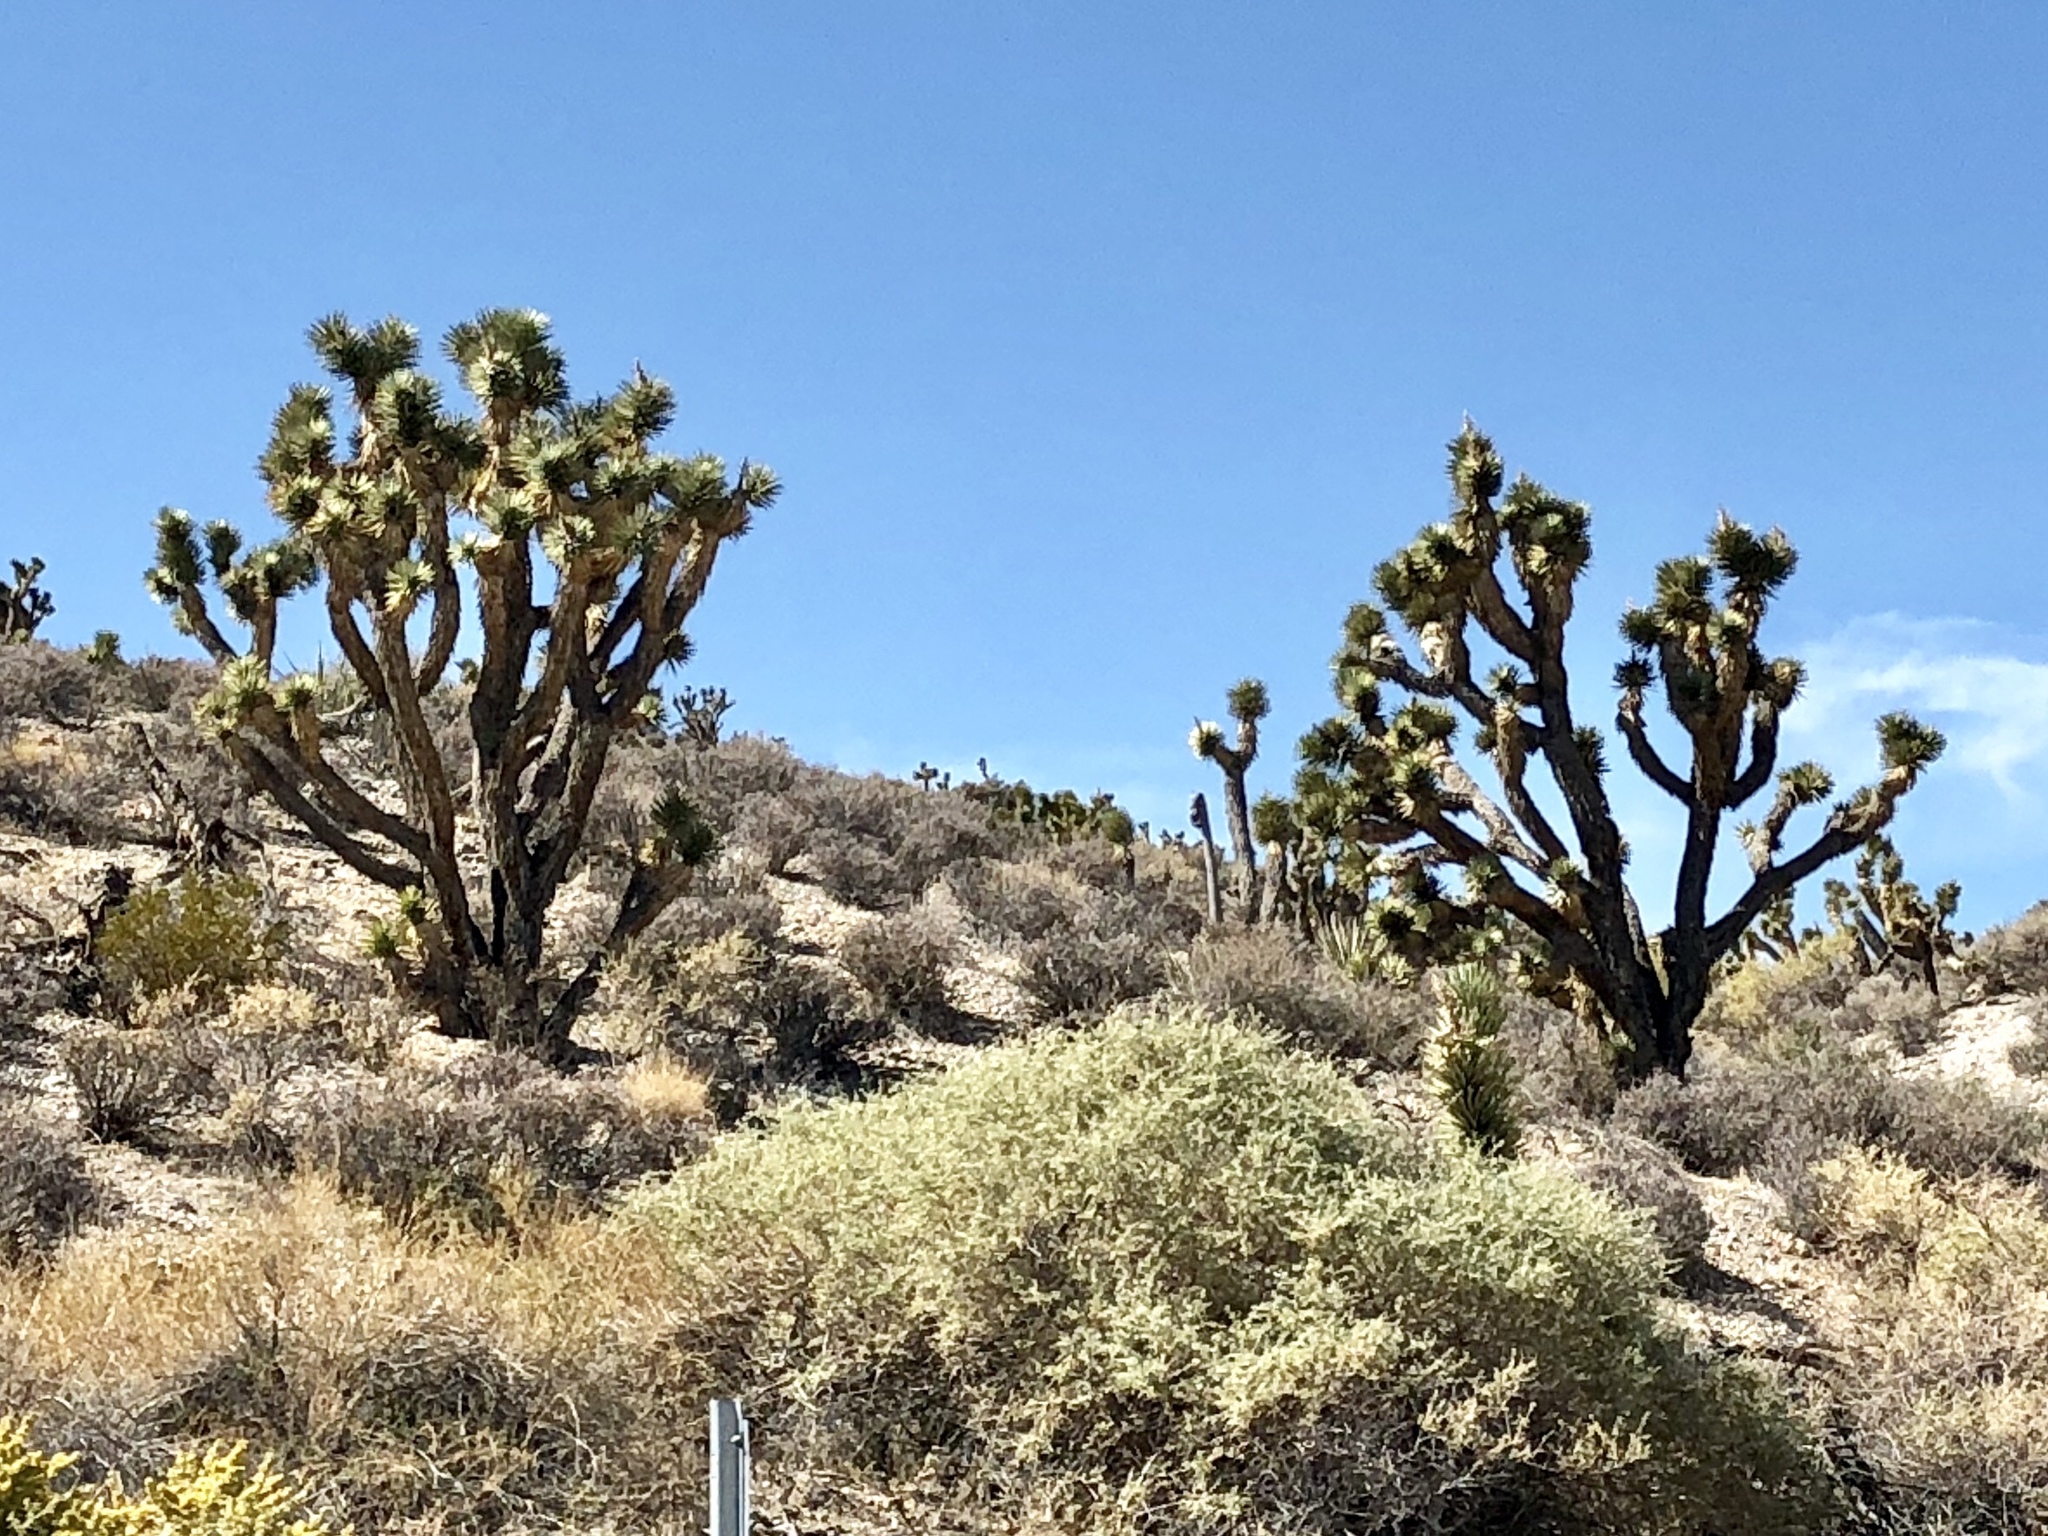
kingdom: Plantae
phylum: Tracheophyta
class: Liliopsida
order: Asparagales
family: Asparagaceae
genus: Yucca
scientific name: Yucca brevifolia
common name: Joshua tree
